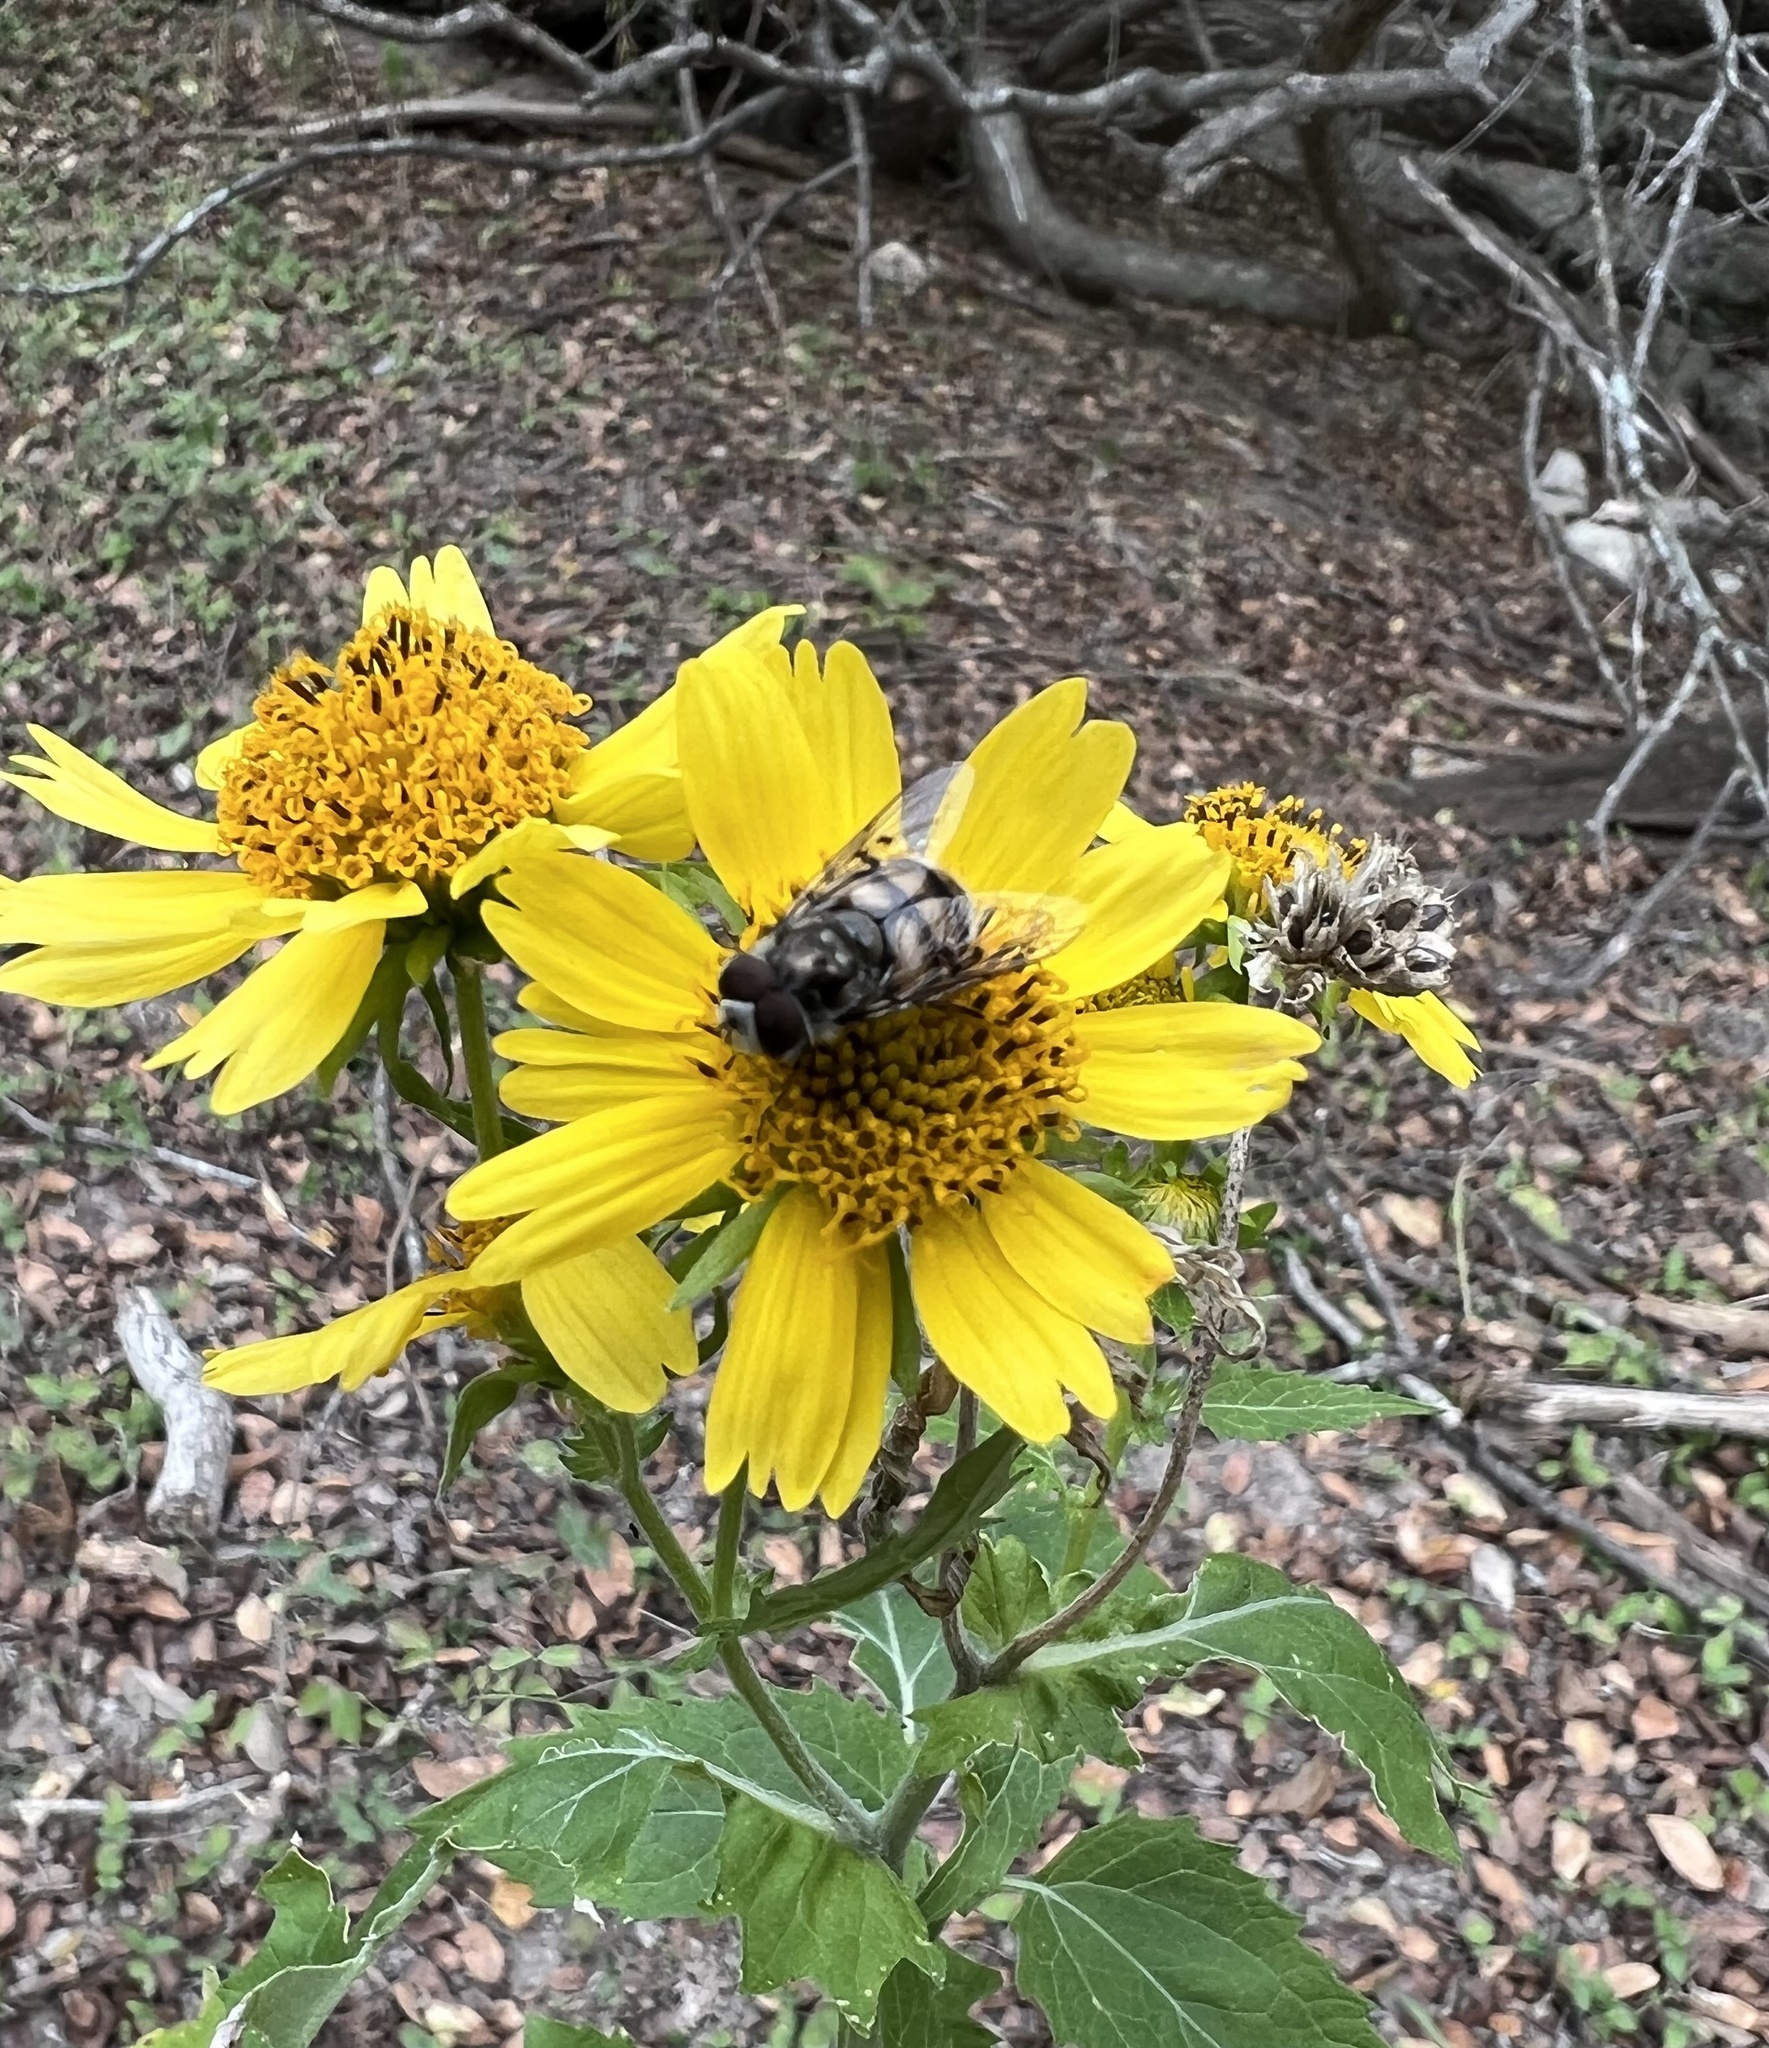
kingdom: Animalia
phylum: Arthropoda
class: Insecta
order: Diptera
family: Syrphidae
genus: Copestylum
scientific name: Copestylum avidum
